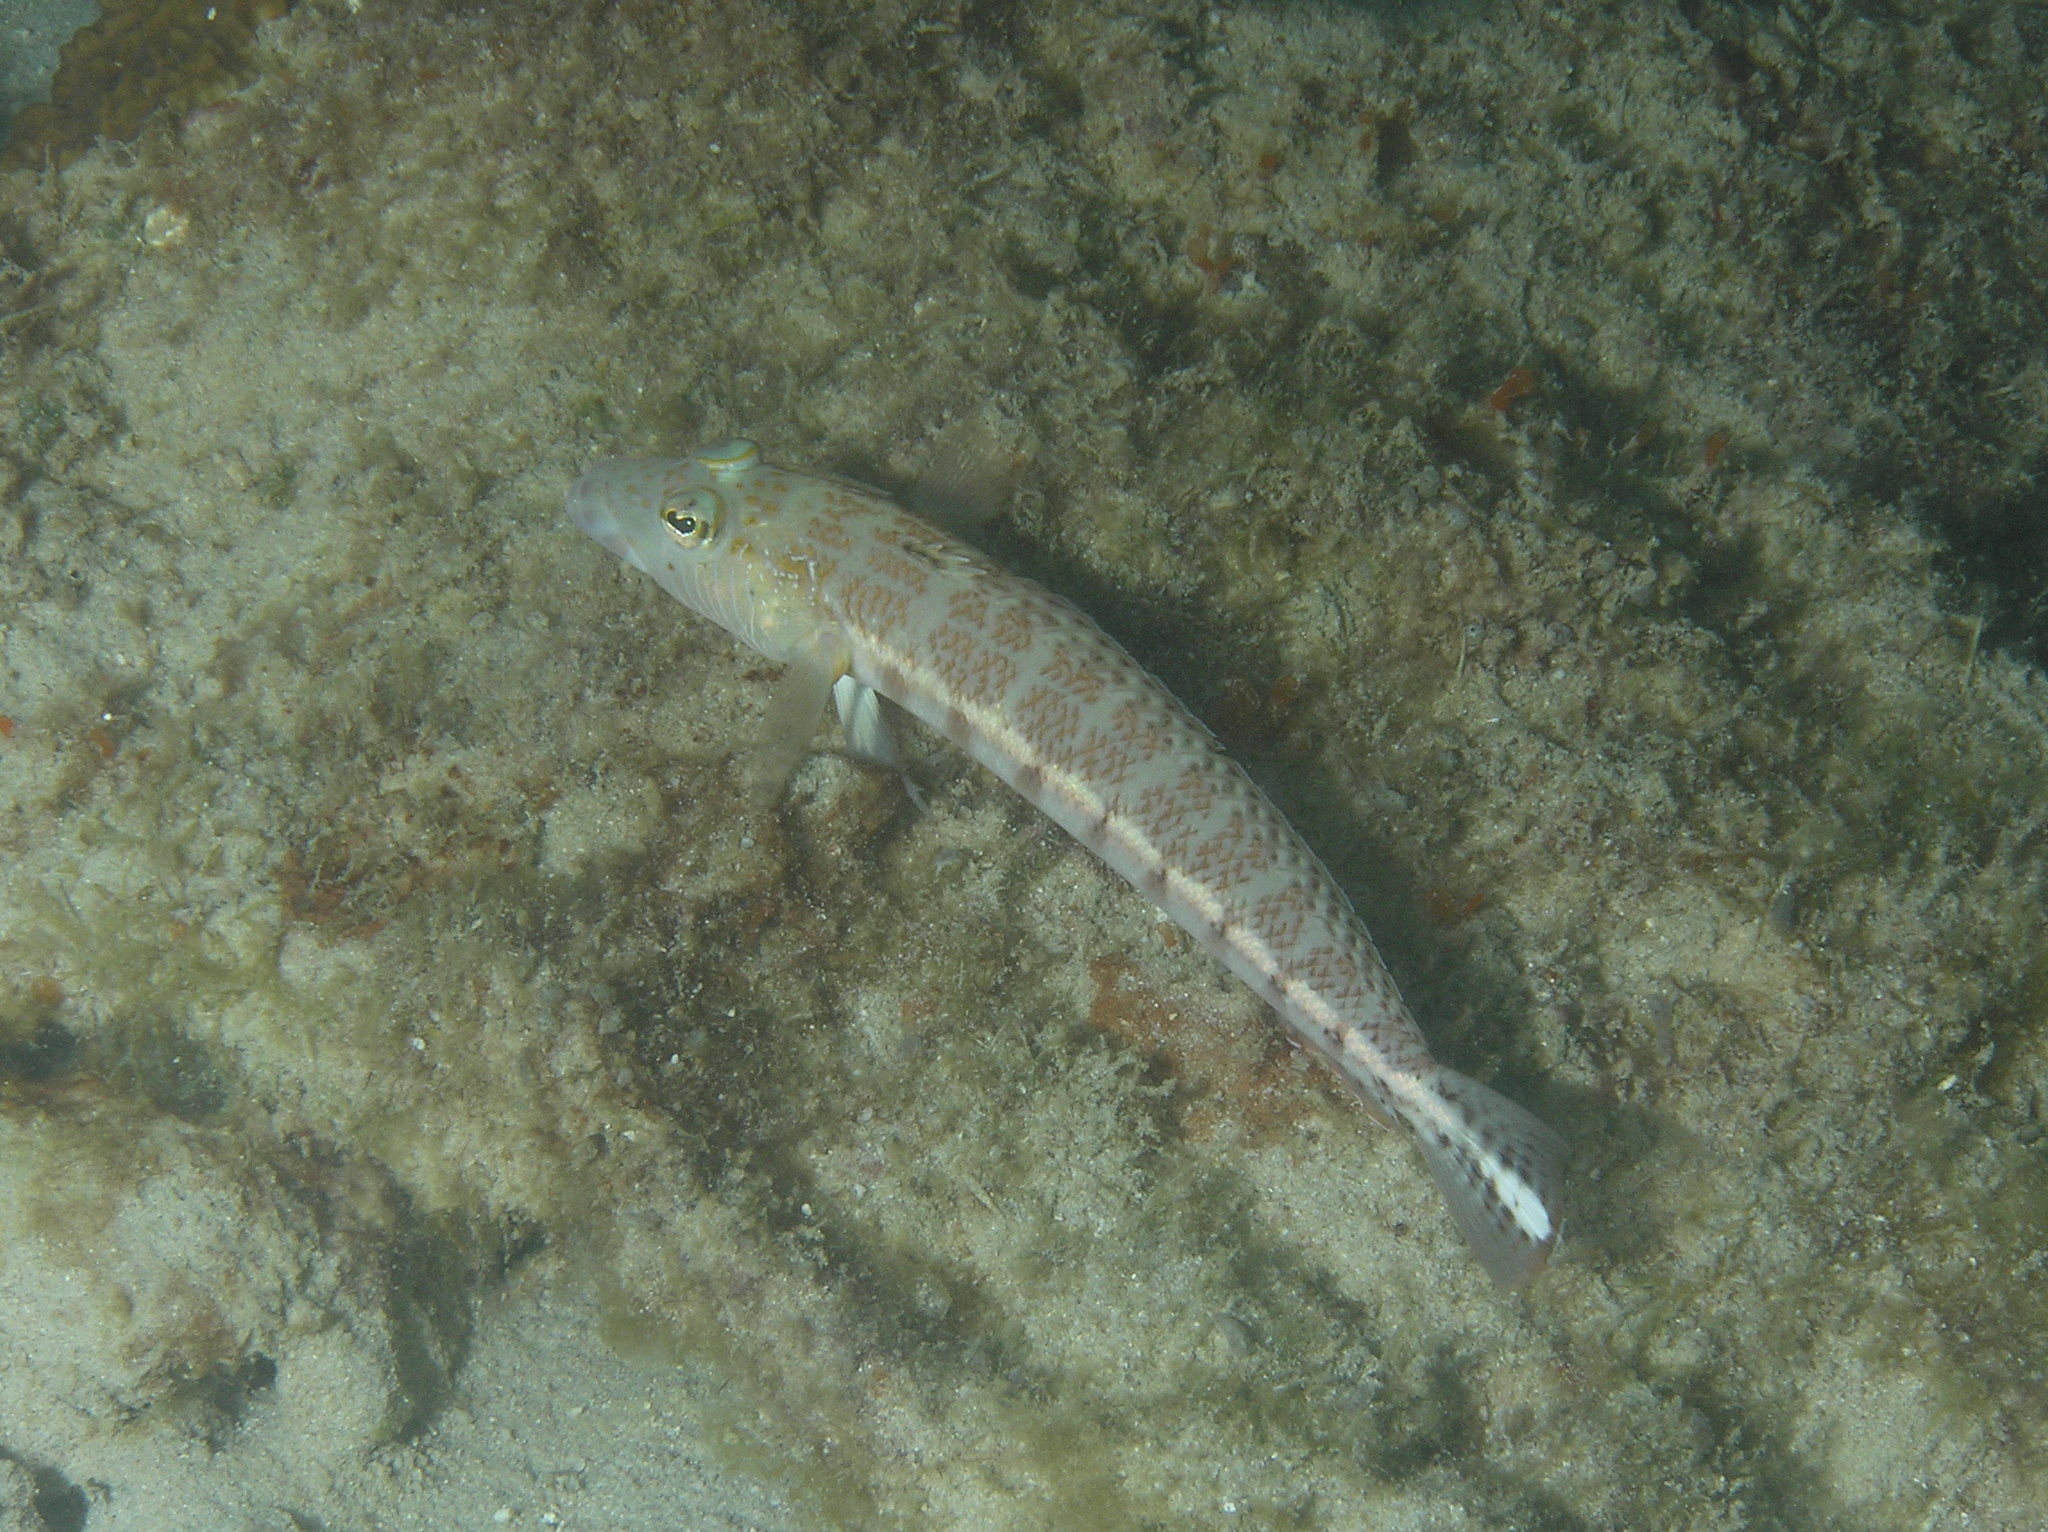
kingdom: Animalia
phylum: Chordata
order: Perciformes
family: Pinguipedidae
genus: Parapercis
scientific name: Parapercis xanthozona
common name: Yellowbar sandperch
